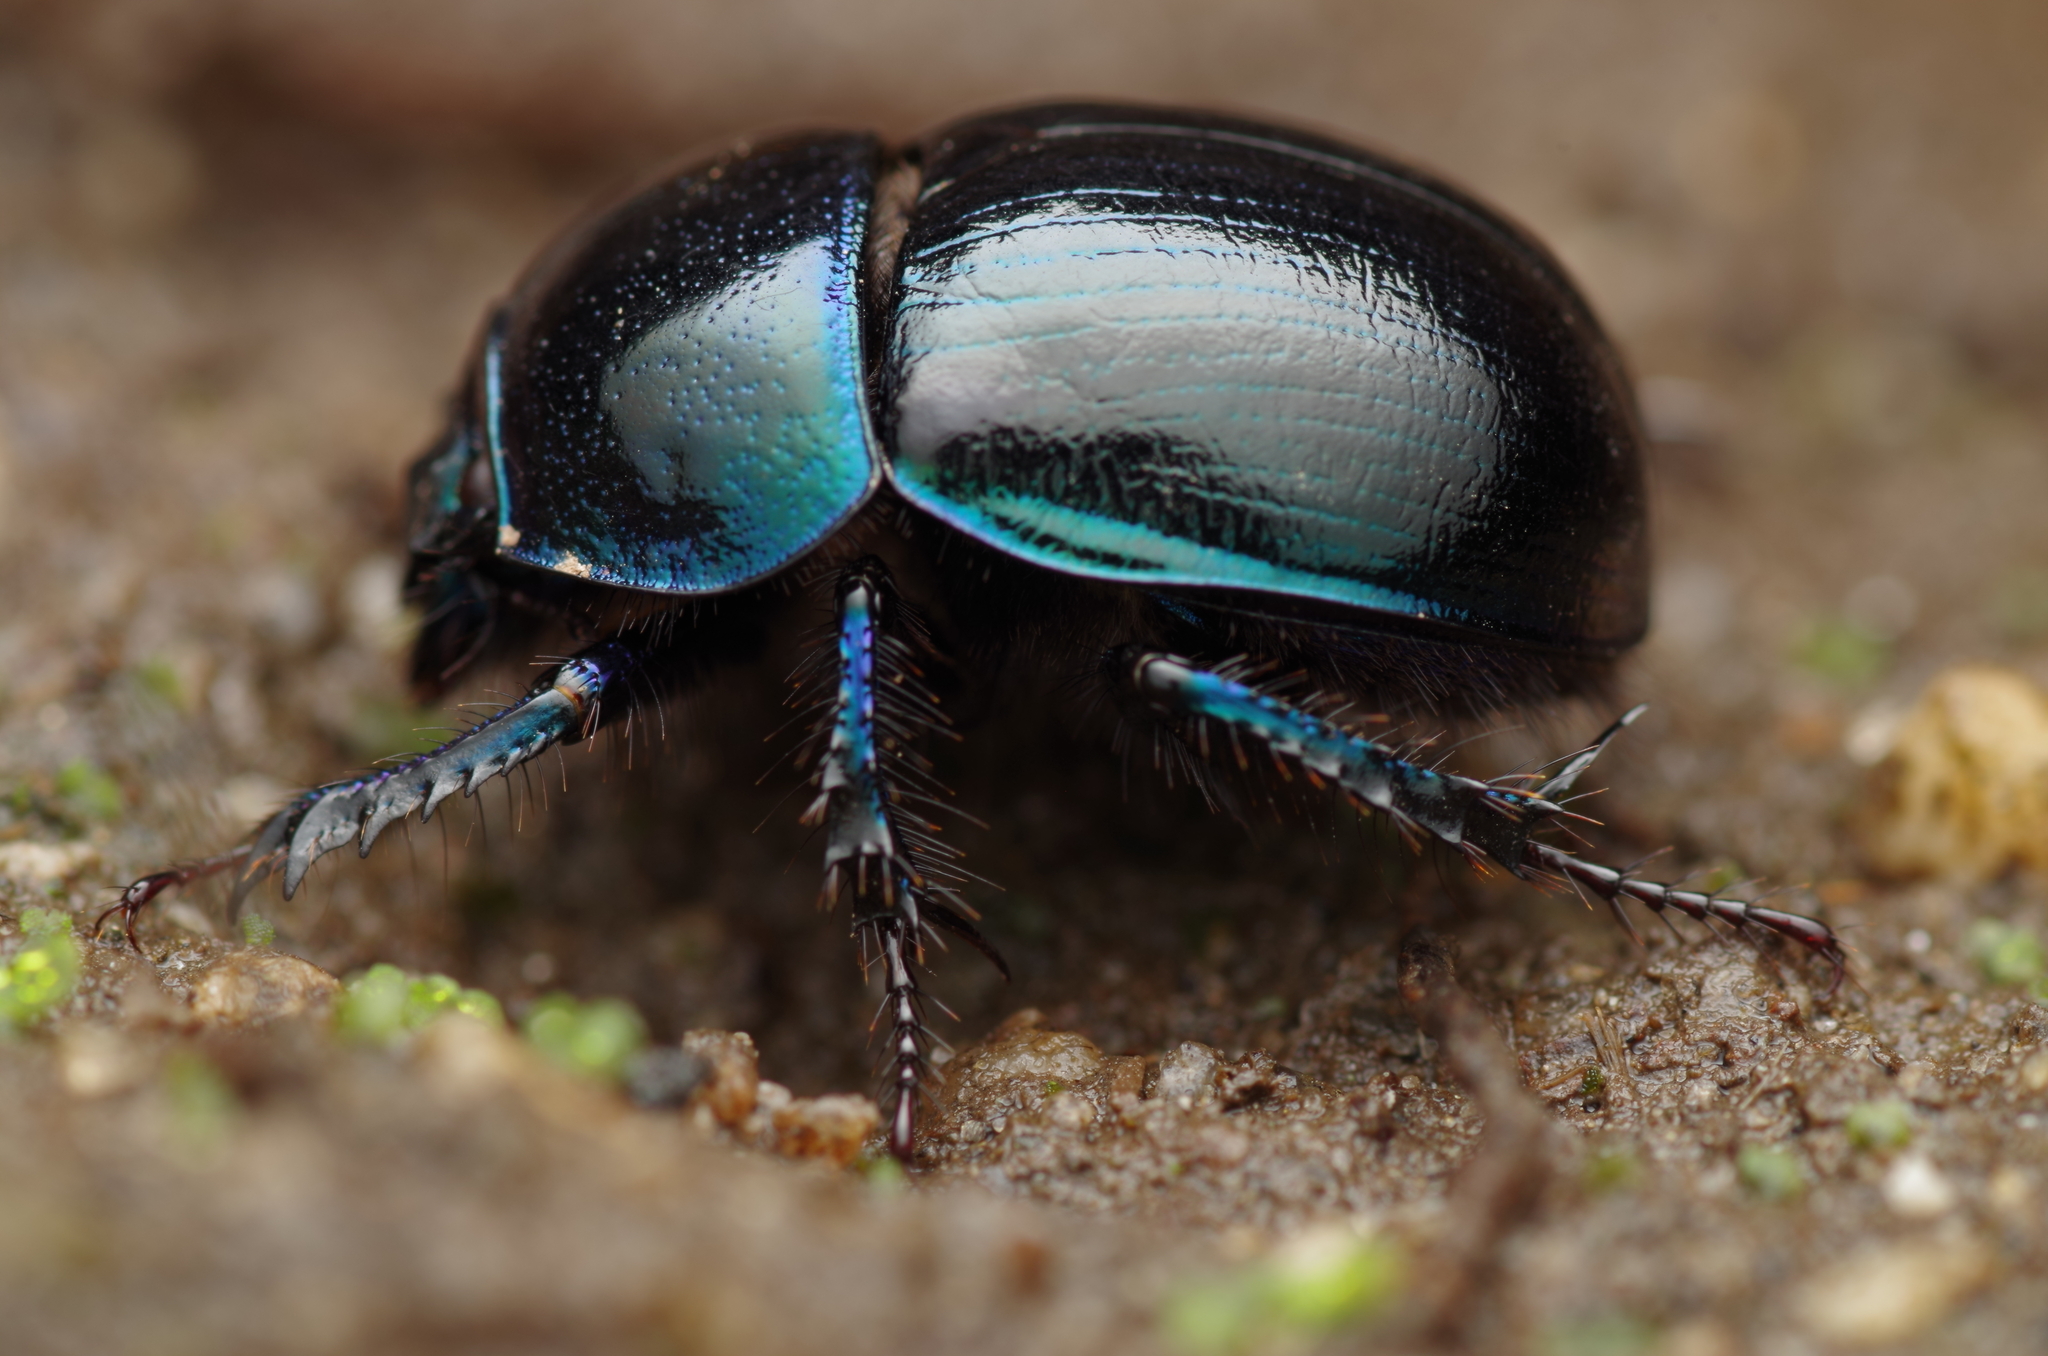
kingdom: Animalia
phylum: Arthropoda
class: Insecta
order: Coleoptera
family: Geotrupidae
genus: Anoplotrupes
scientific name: Anoplotrupes stercorosus
